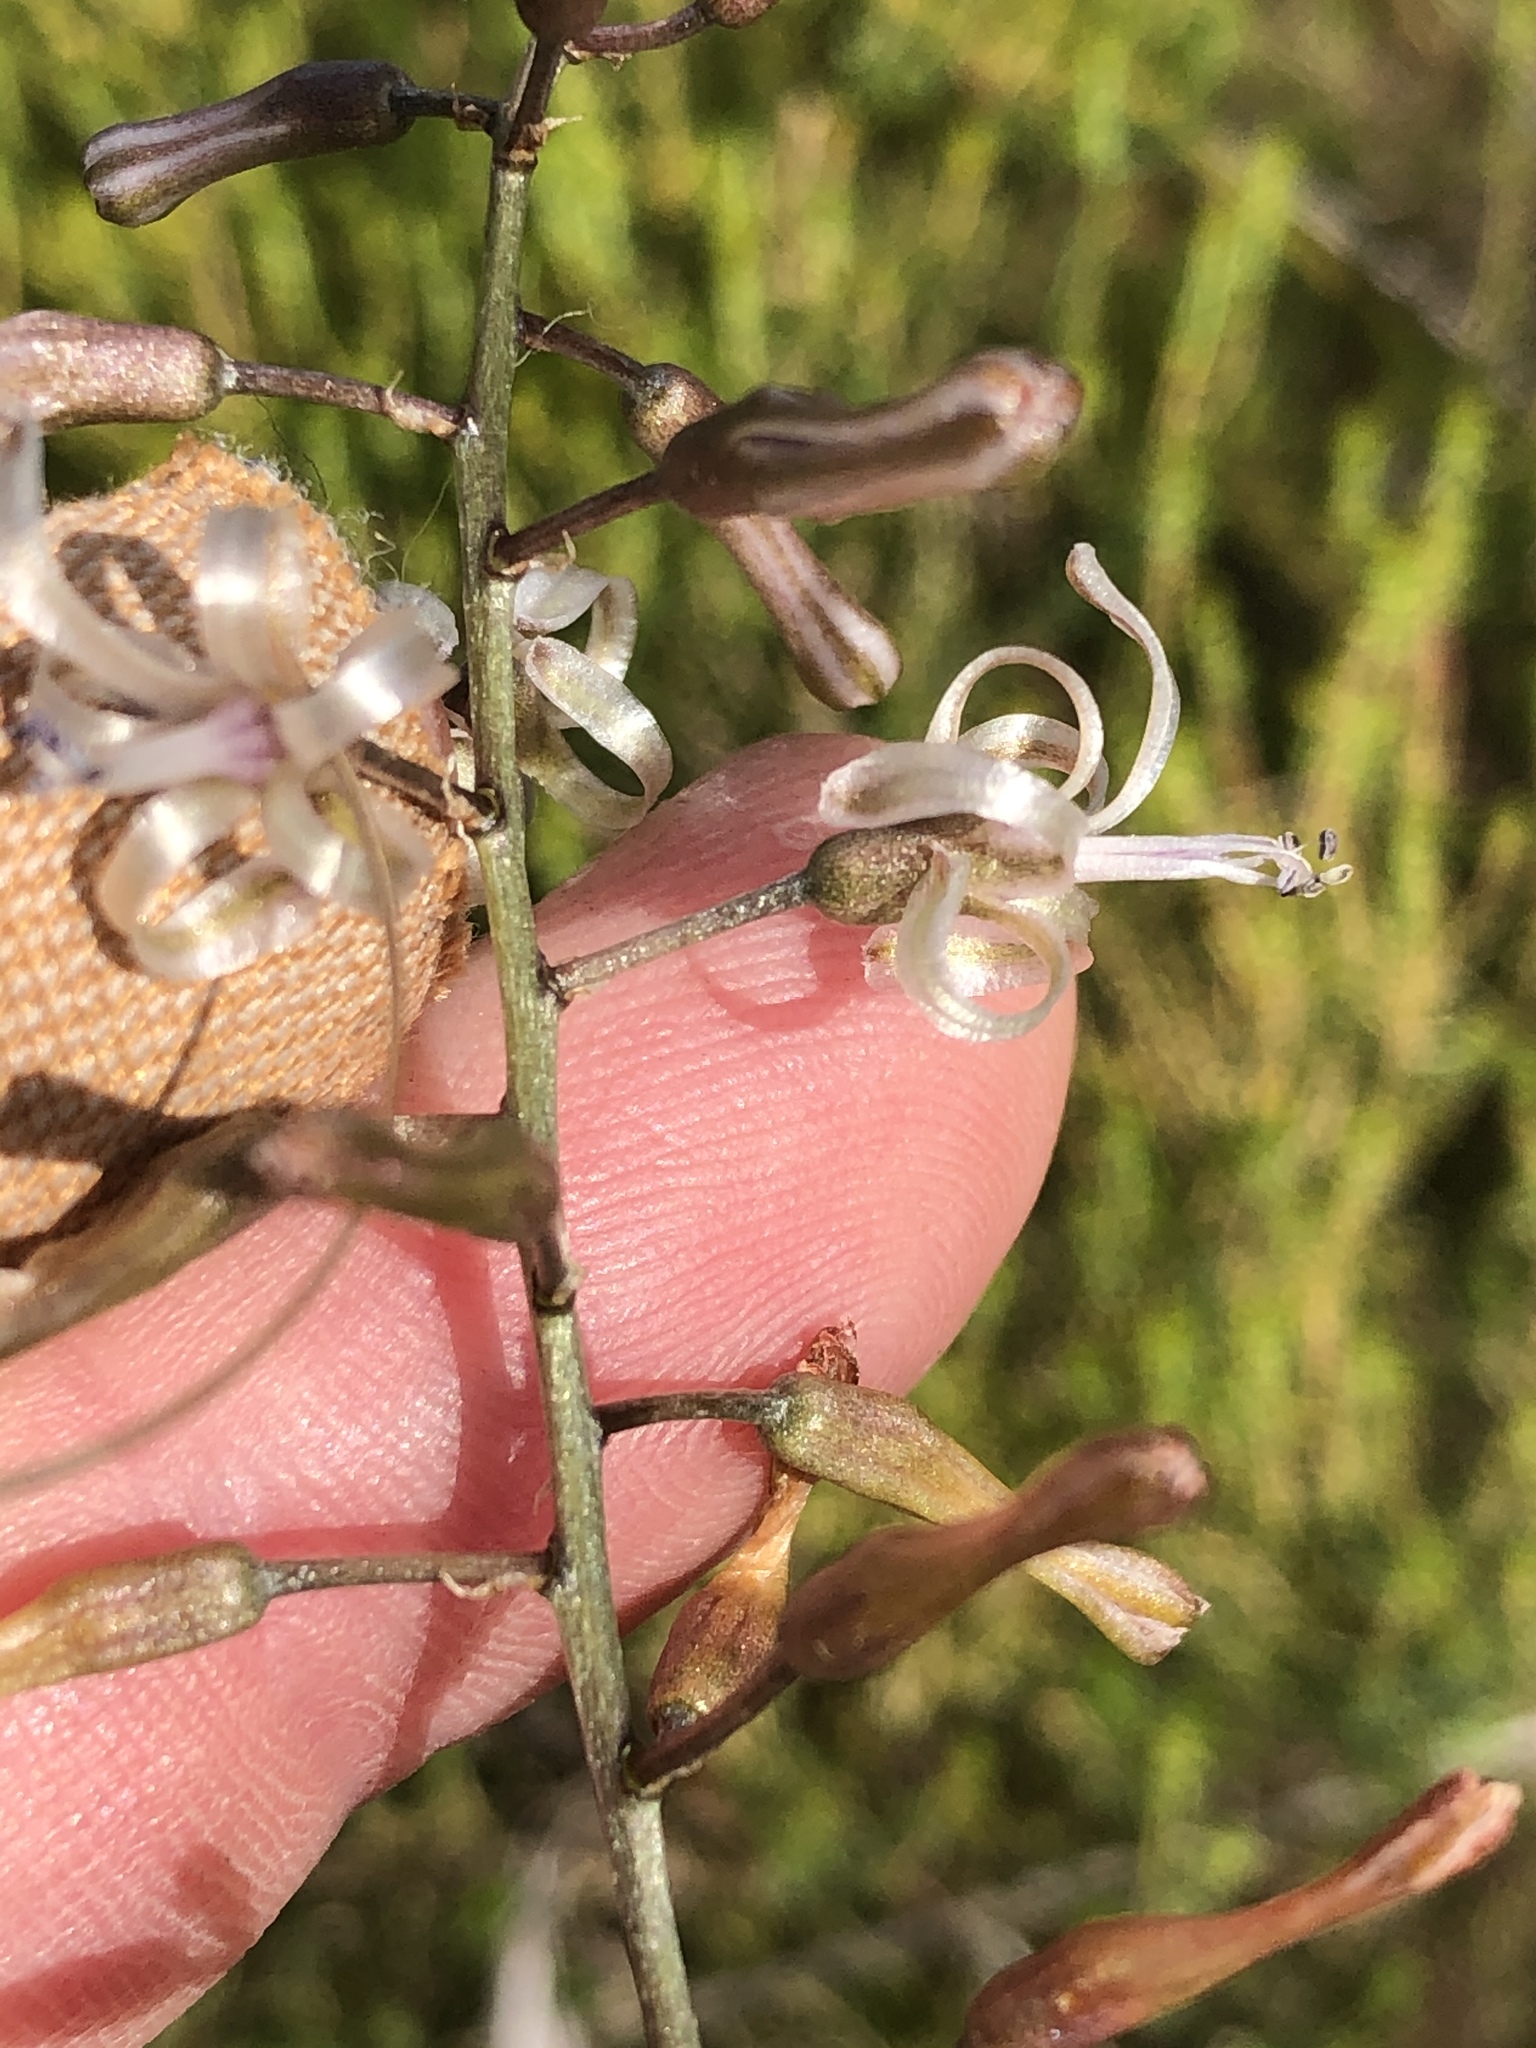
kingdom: Plantae
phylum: Tracheophyta
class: Liliopsida
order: Asparagales
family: Asparagaceae
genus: Drimia
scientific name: Drimia media
